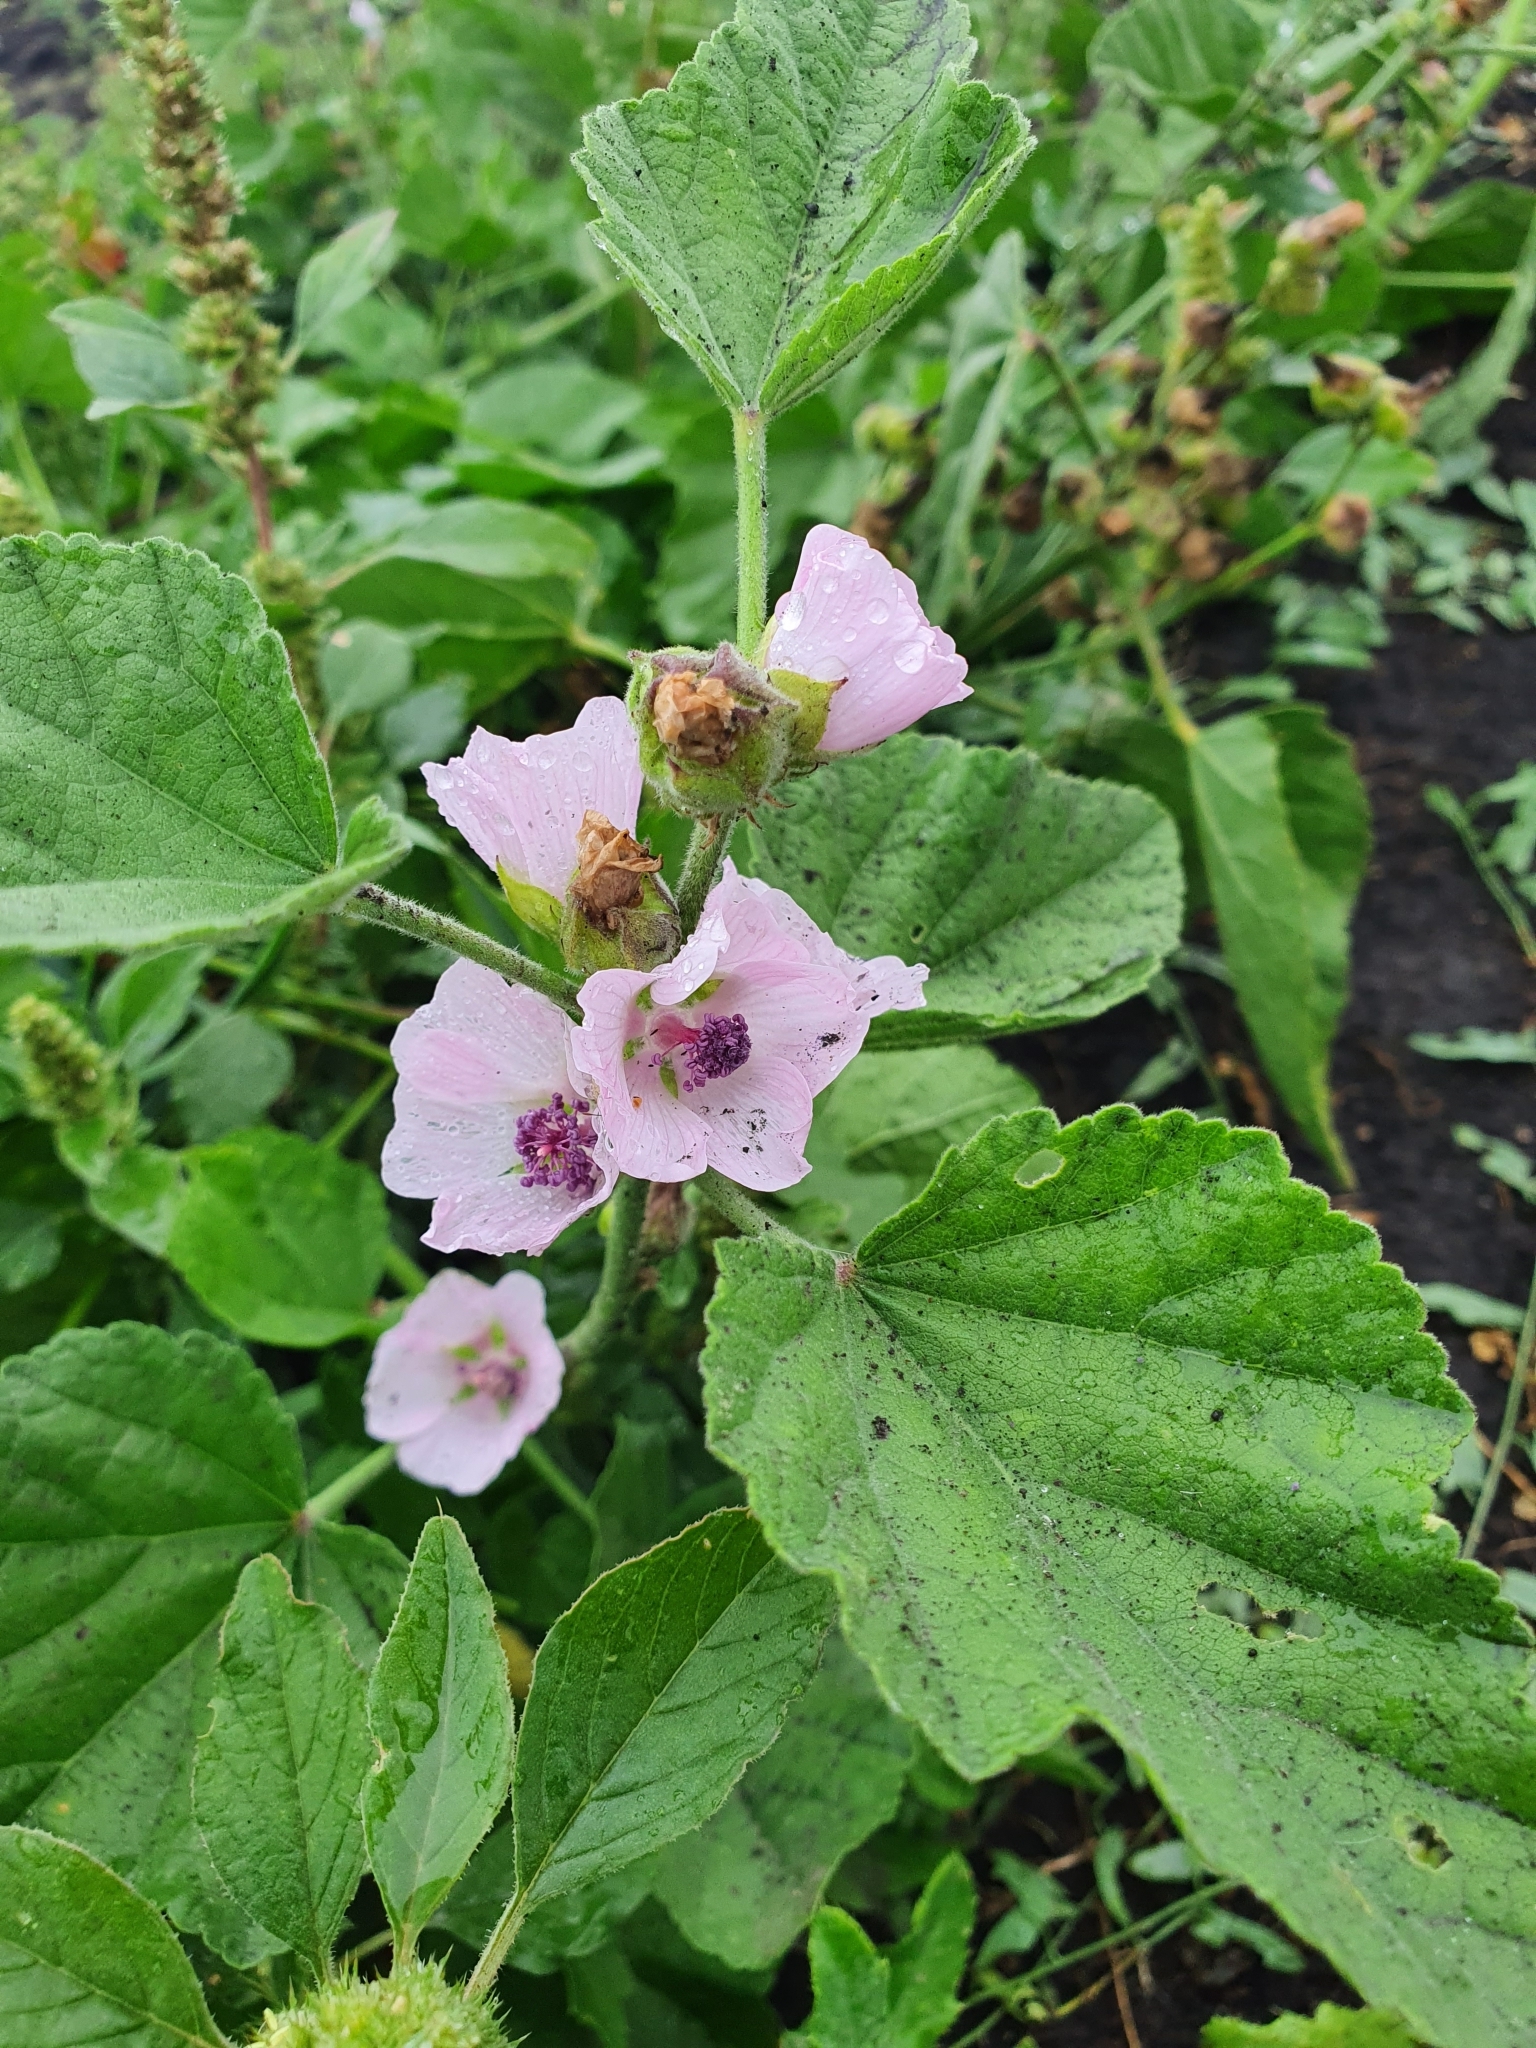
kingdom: Plantae
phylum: Tracheophyta
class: Magnoliopsida
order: Malvales
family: Malvaceae
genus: Althaea
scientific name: Althaea officinalis
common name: Marsh-mallow
